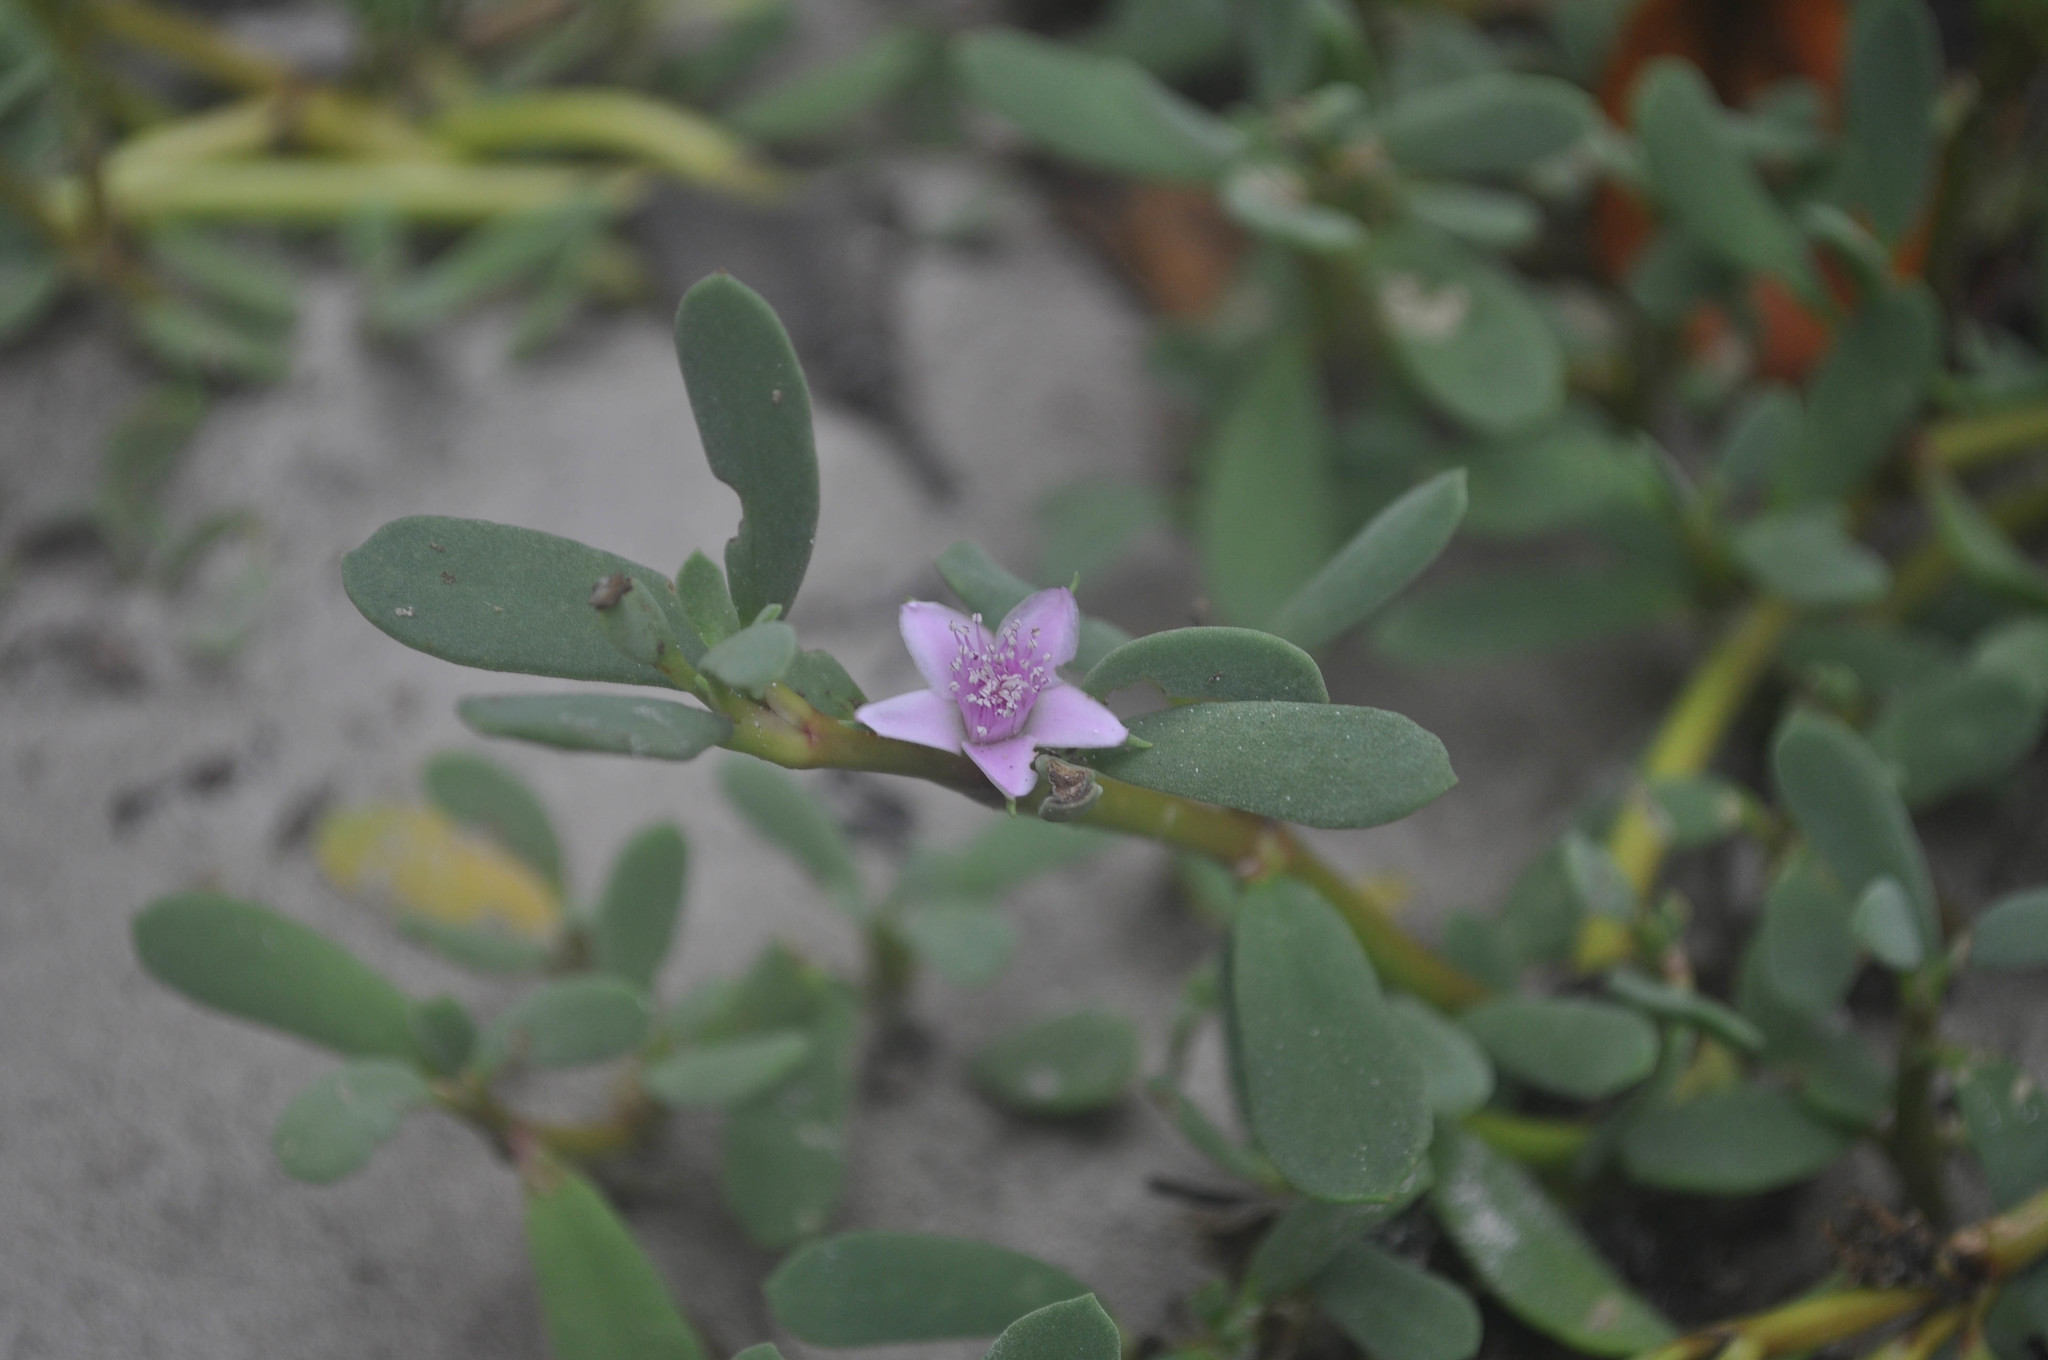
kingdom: Plantae
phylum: Tracheophyta
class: Magnoliopsida
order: Caryophyllales
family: Aizoaceae
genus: Sesuvium
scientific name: Sesuvium portulacastrum
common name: Sea-purslane
